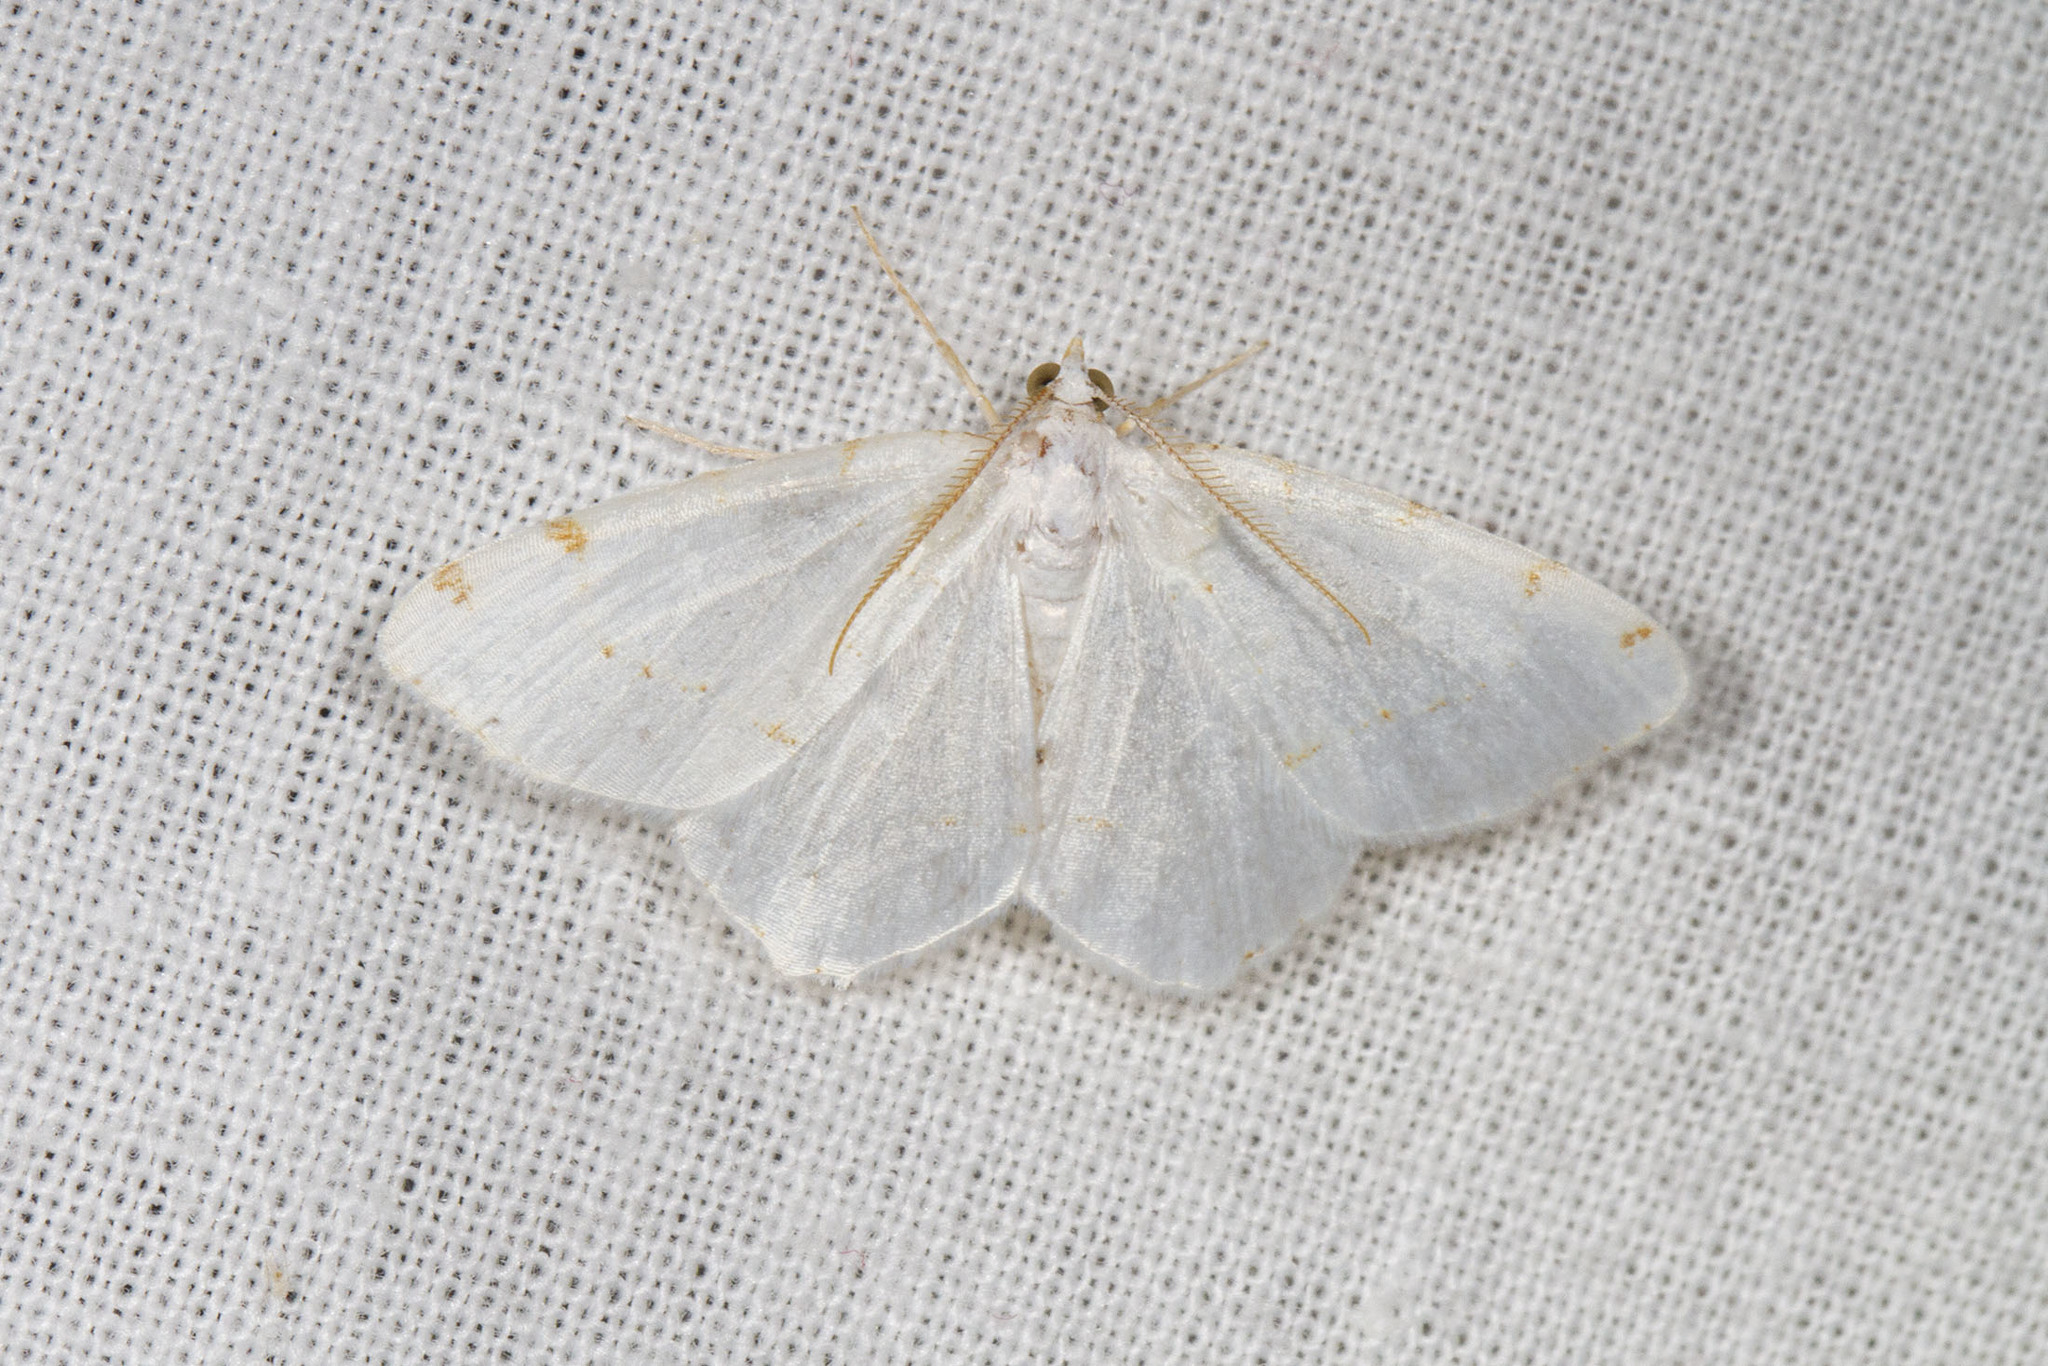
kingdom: Animalia
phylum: Arthropoda
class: Insecta
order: Lepidoptera
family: Geometridae
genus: Macaria
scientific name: Macaria pustularia
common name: Lesser maple spanworm moth
